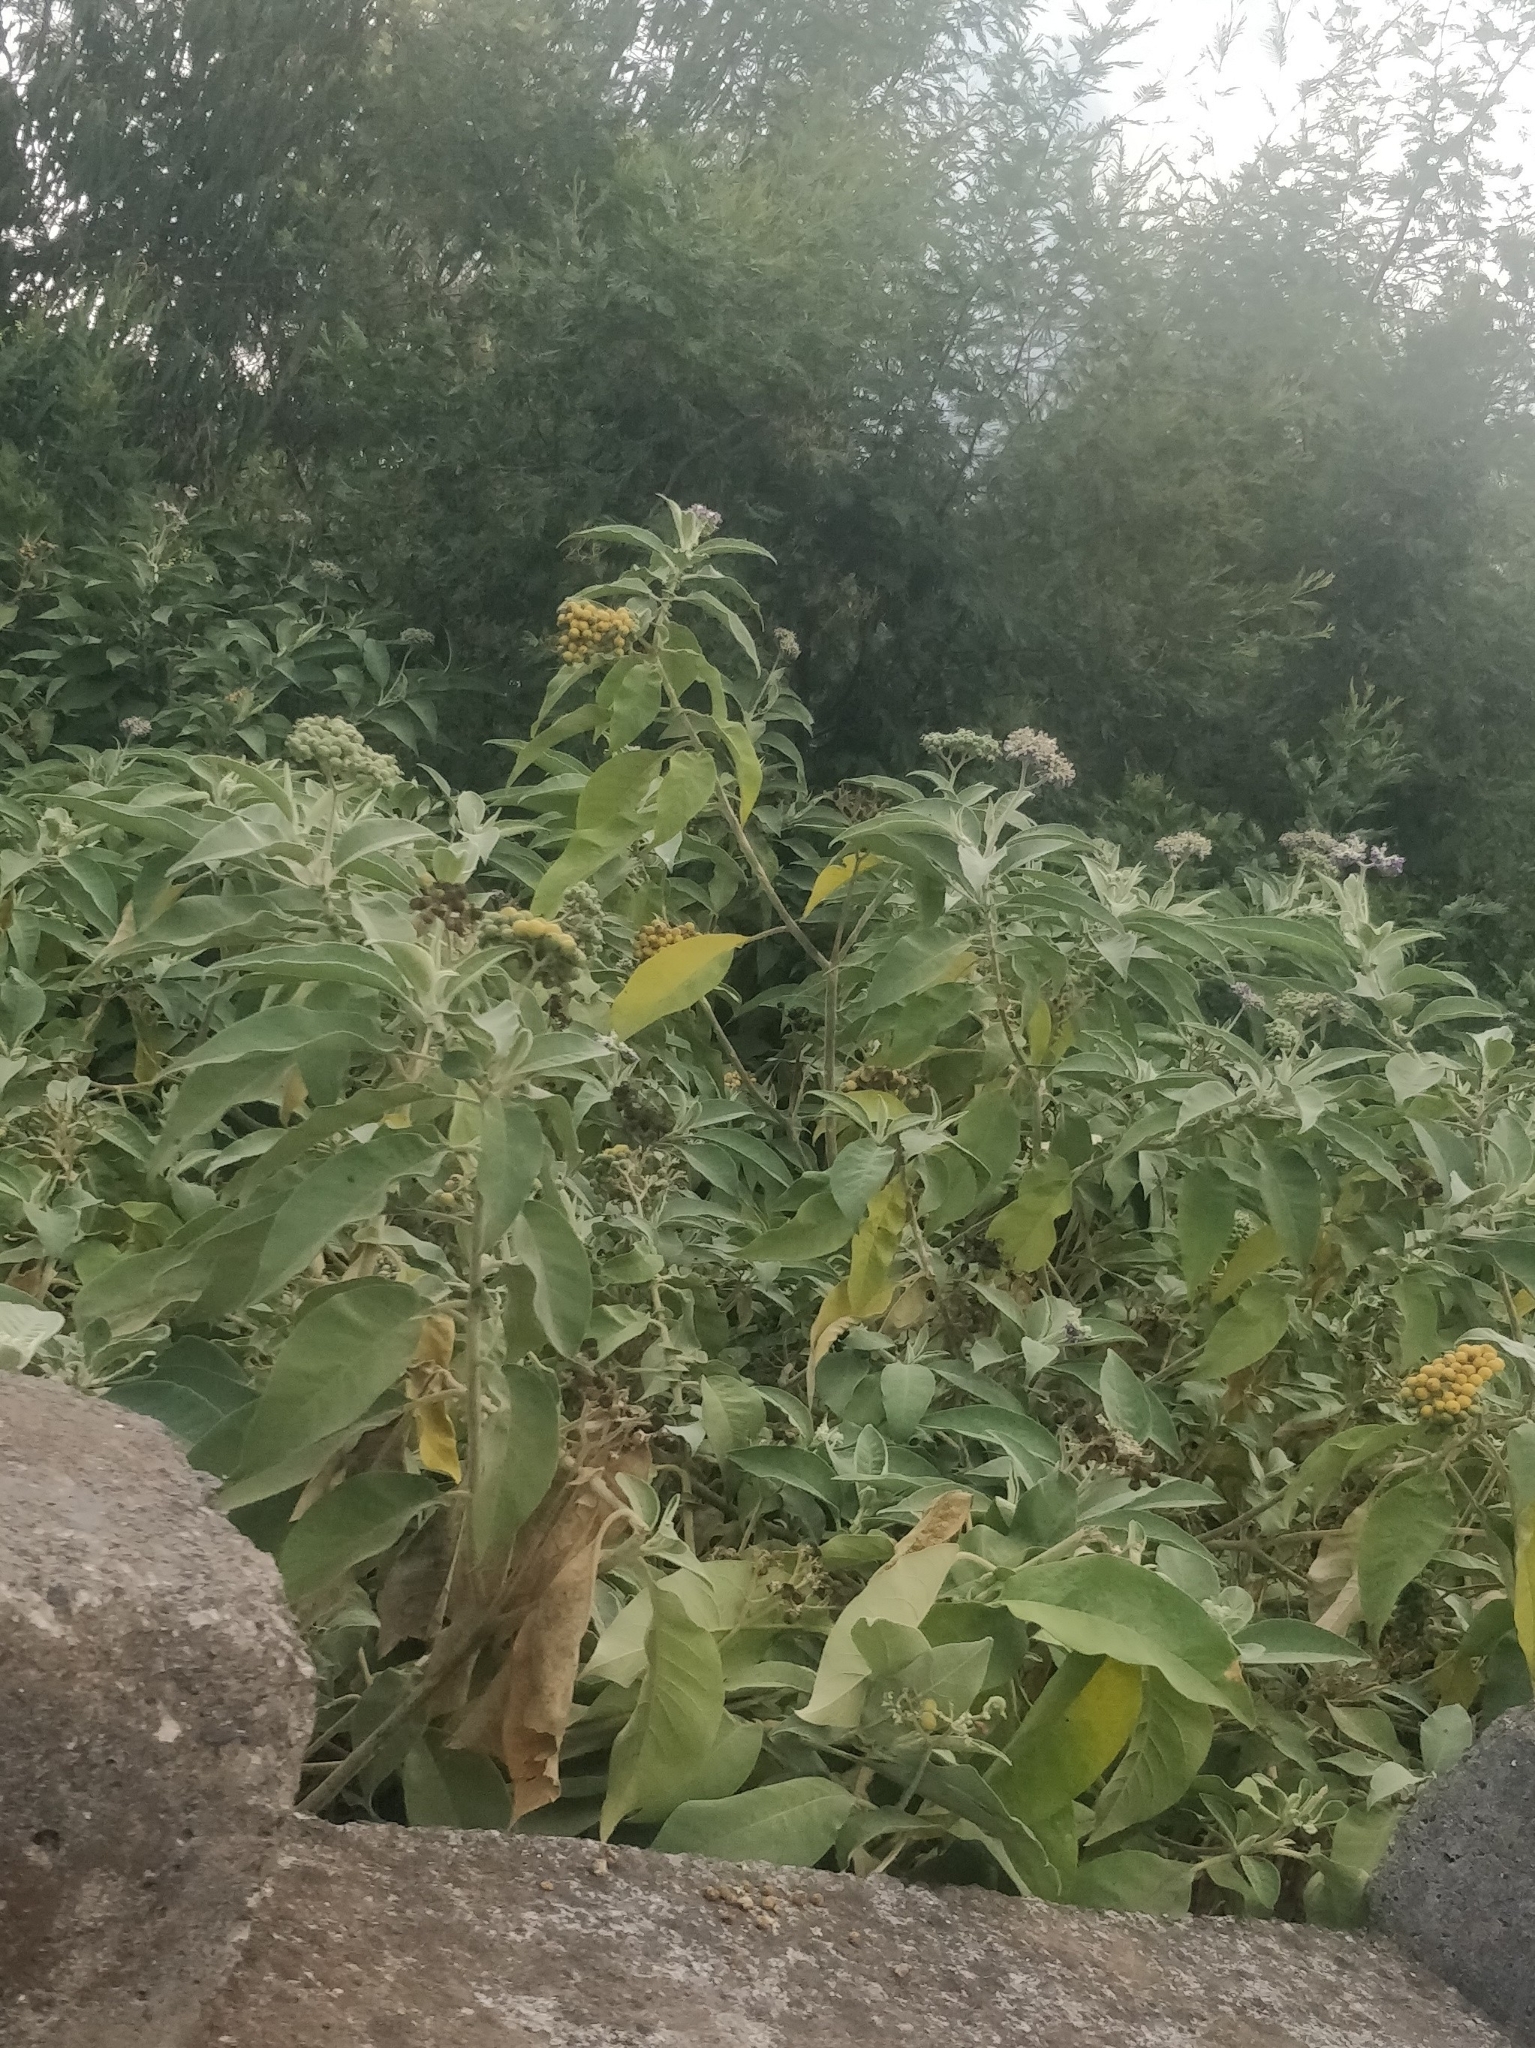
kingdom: Plantae
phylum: Tracheophyta
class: Magnoliopsida
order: Solanales
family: Solanaceae
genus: Solanum
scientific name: Solanum mauritianum
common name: Earleaf nightshade
